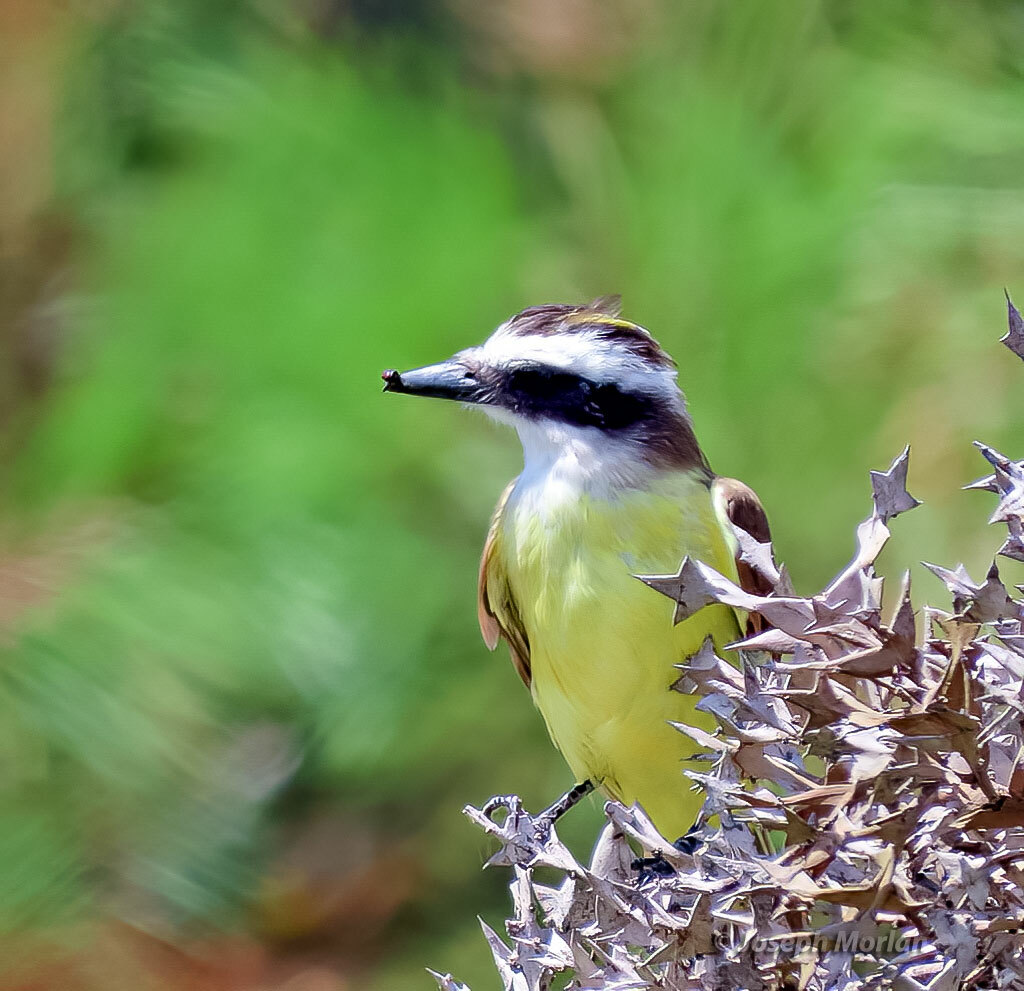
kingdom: Animalia
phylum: Chordata
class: Aves
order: Passeriformes
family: Tyrannidae
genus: Pitangus
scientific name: Pitangus sulphuratus
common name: Great kiskadee
